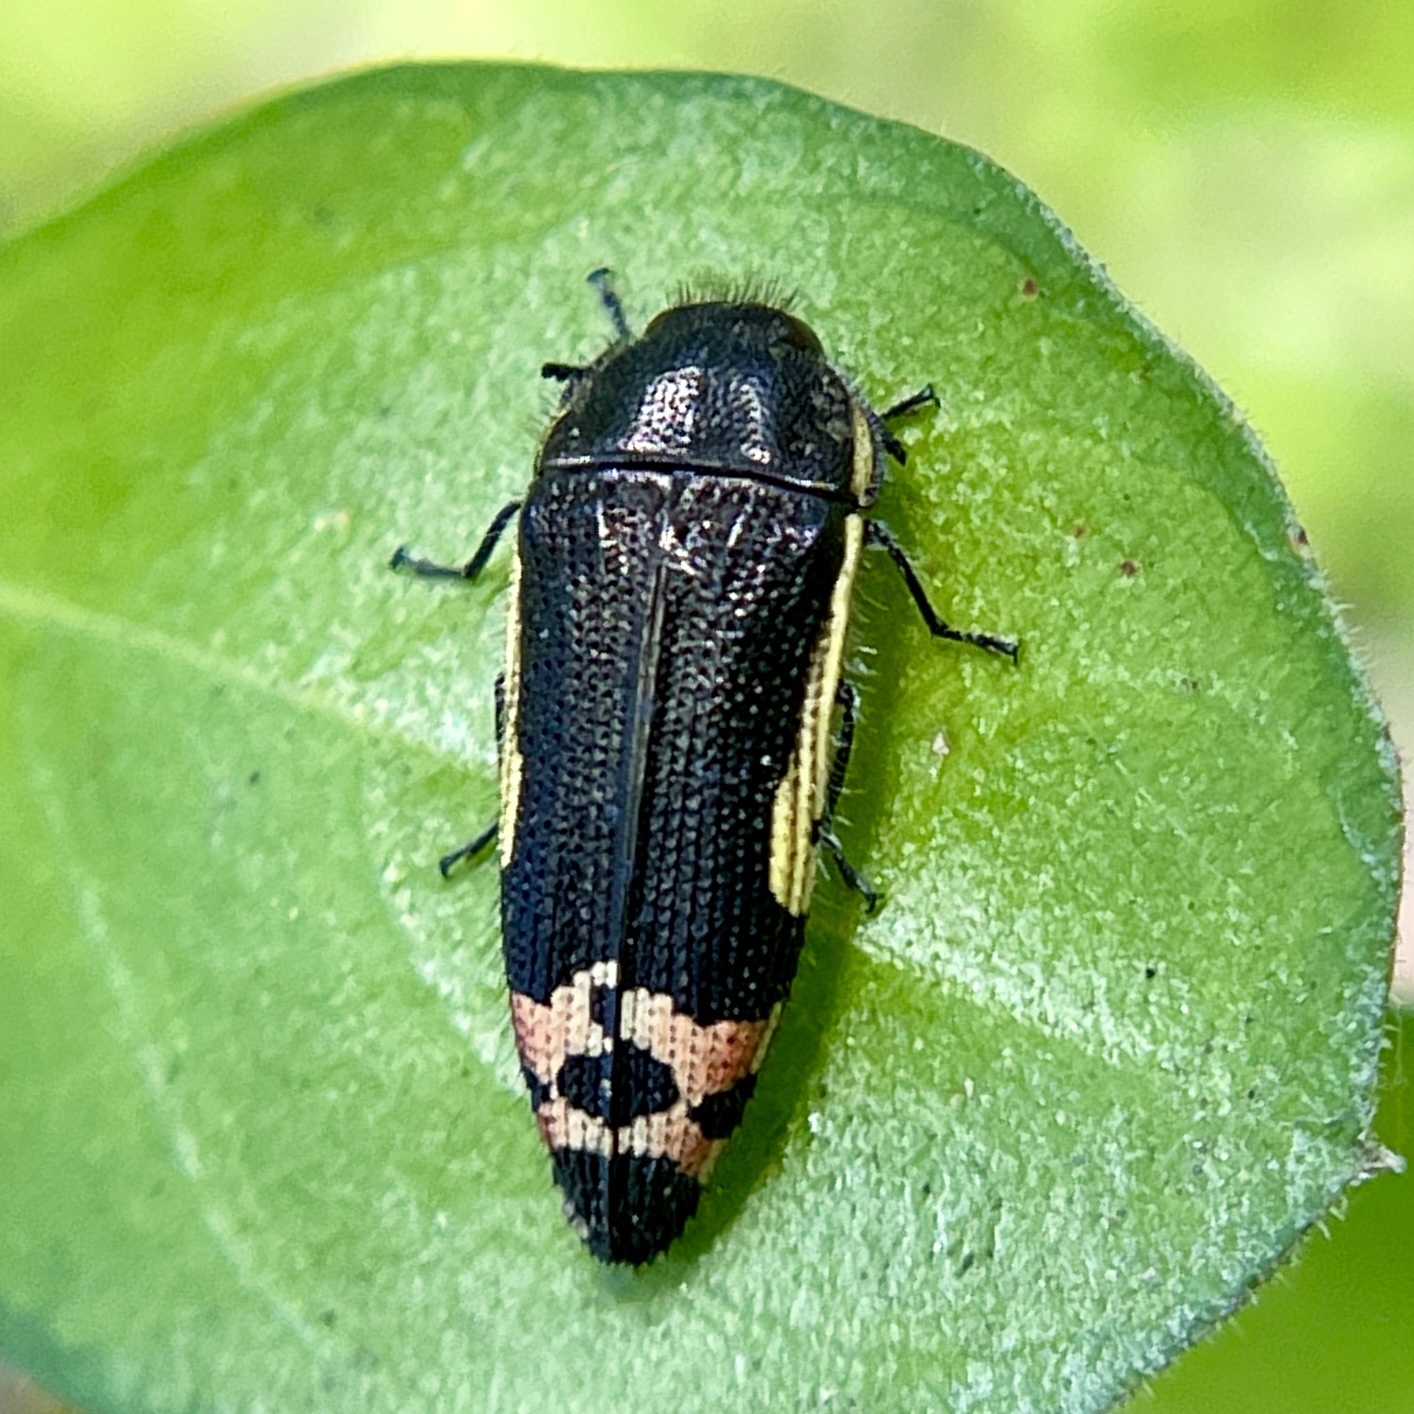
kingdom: Animalia
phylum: Arthropoda
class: Insecta
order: Coleoptera
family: Buprestidae
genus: Acmaeodera
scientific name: Acmaeodera flavomarginata
